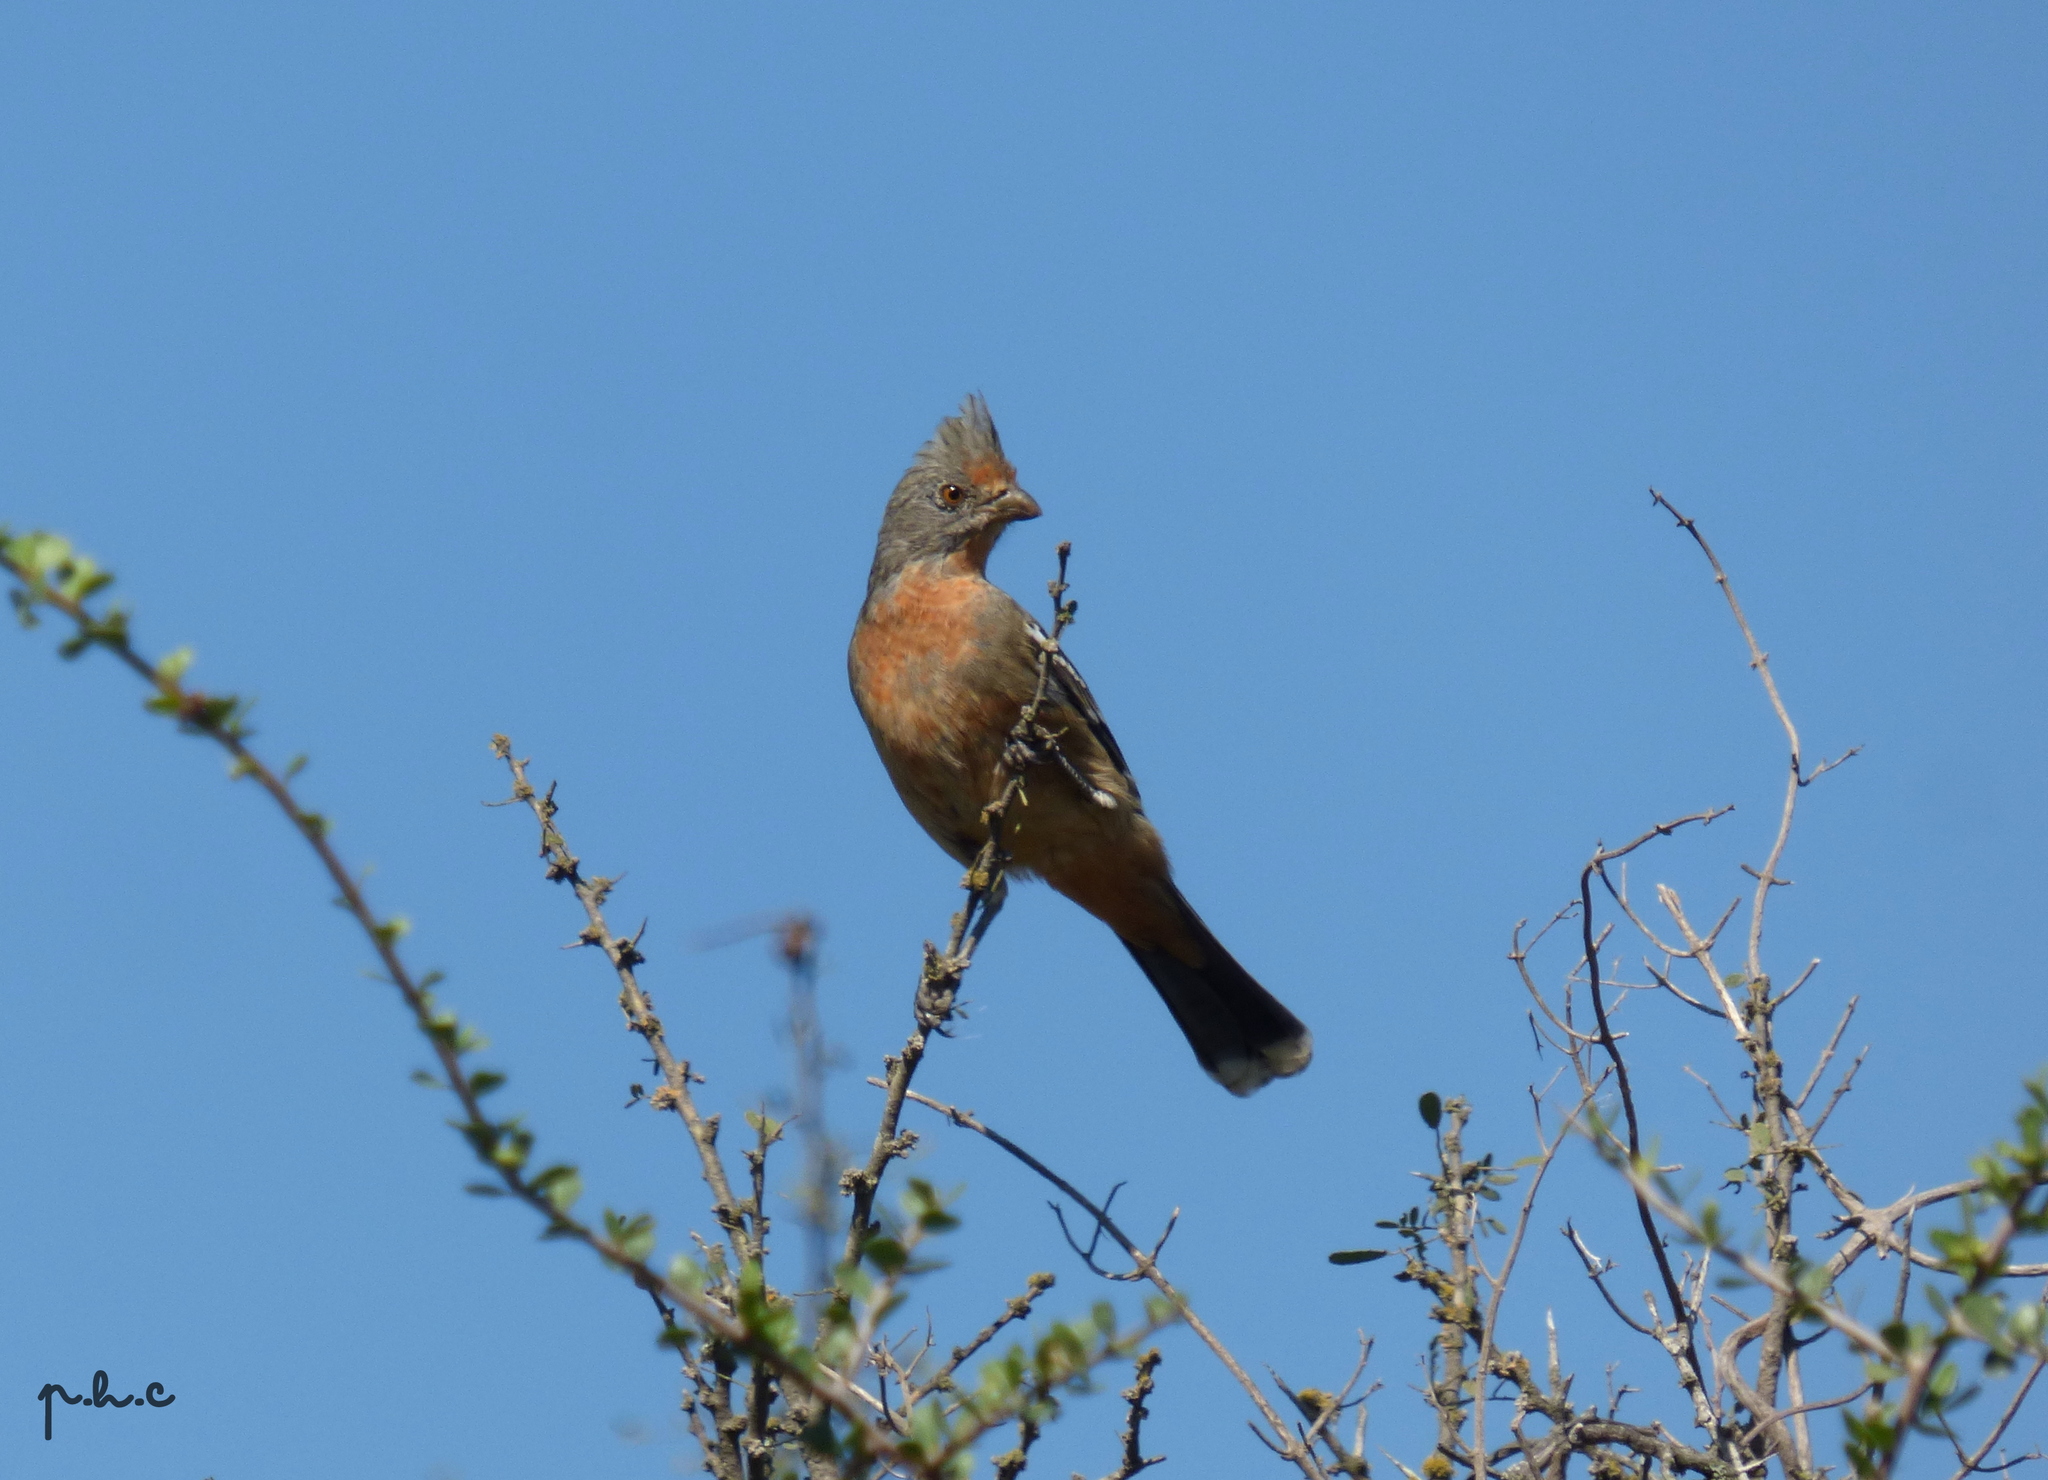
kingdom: Animalia
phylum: Chordata
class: Aves
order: Passeriformes
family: Cotingidae
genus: Phytotoma
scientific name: Phytotoma rutila
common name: White-tipped plantcutter
